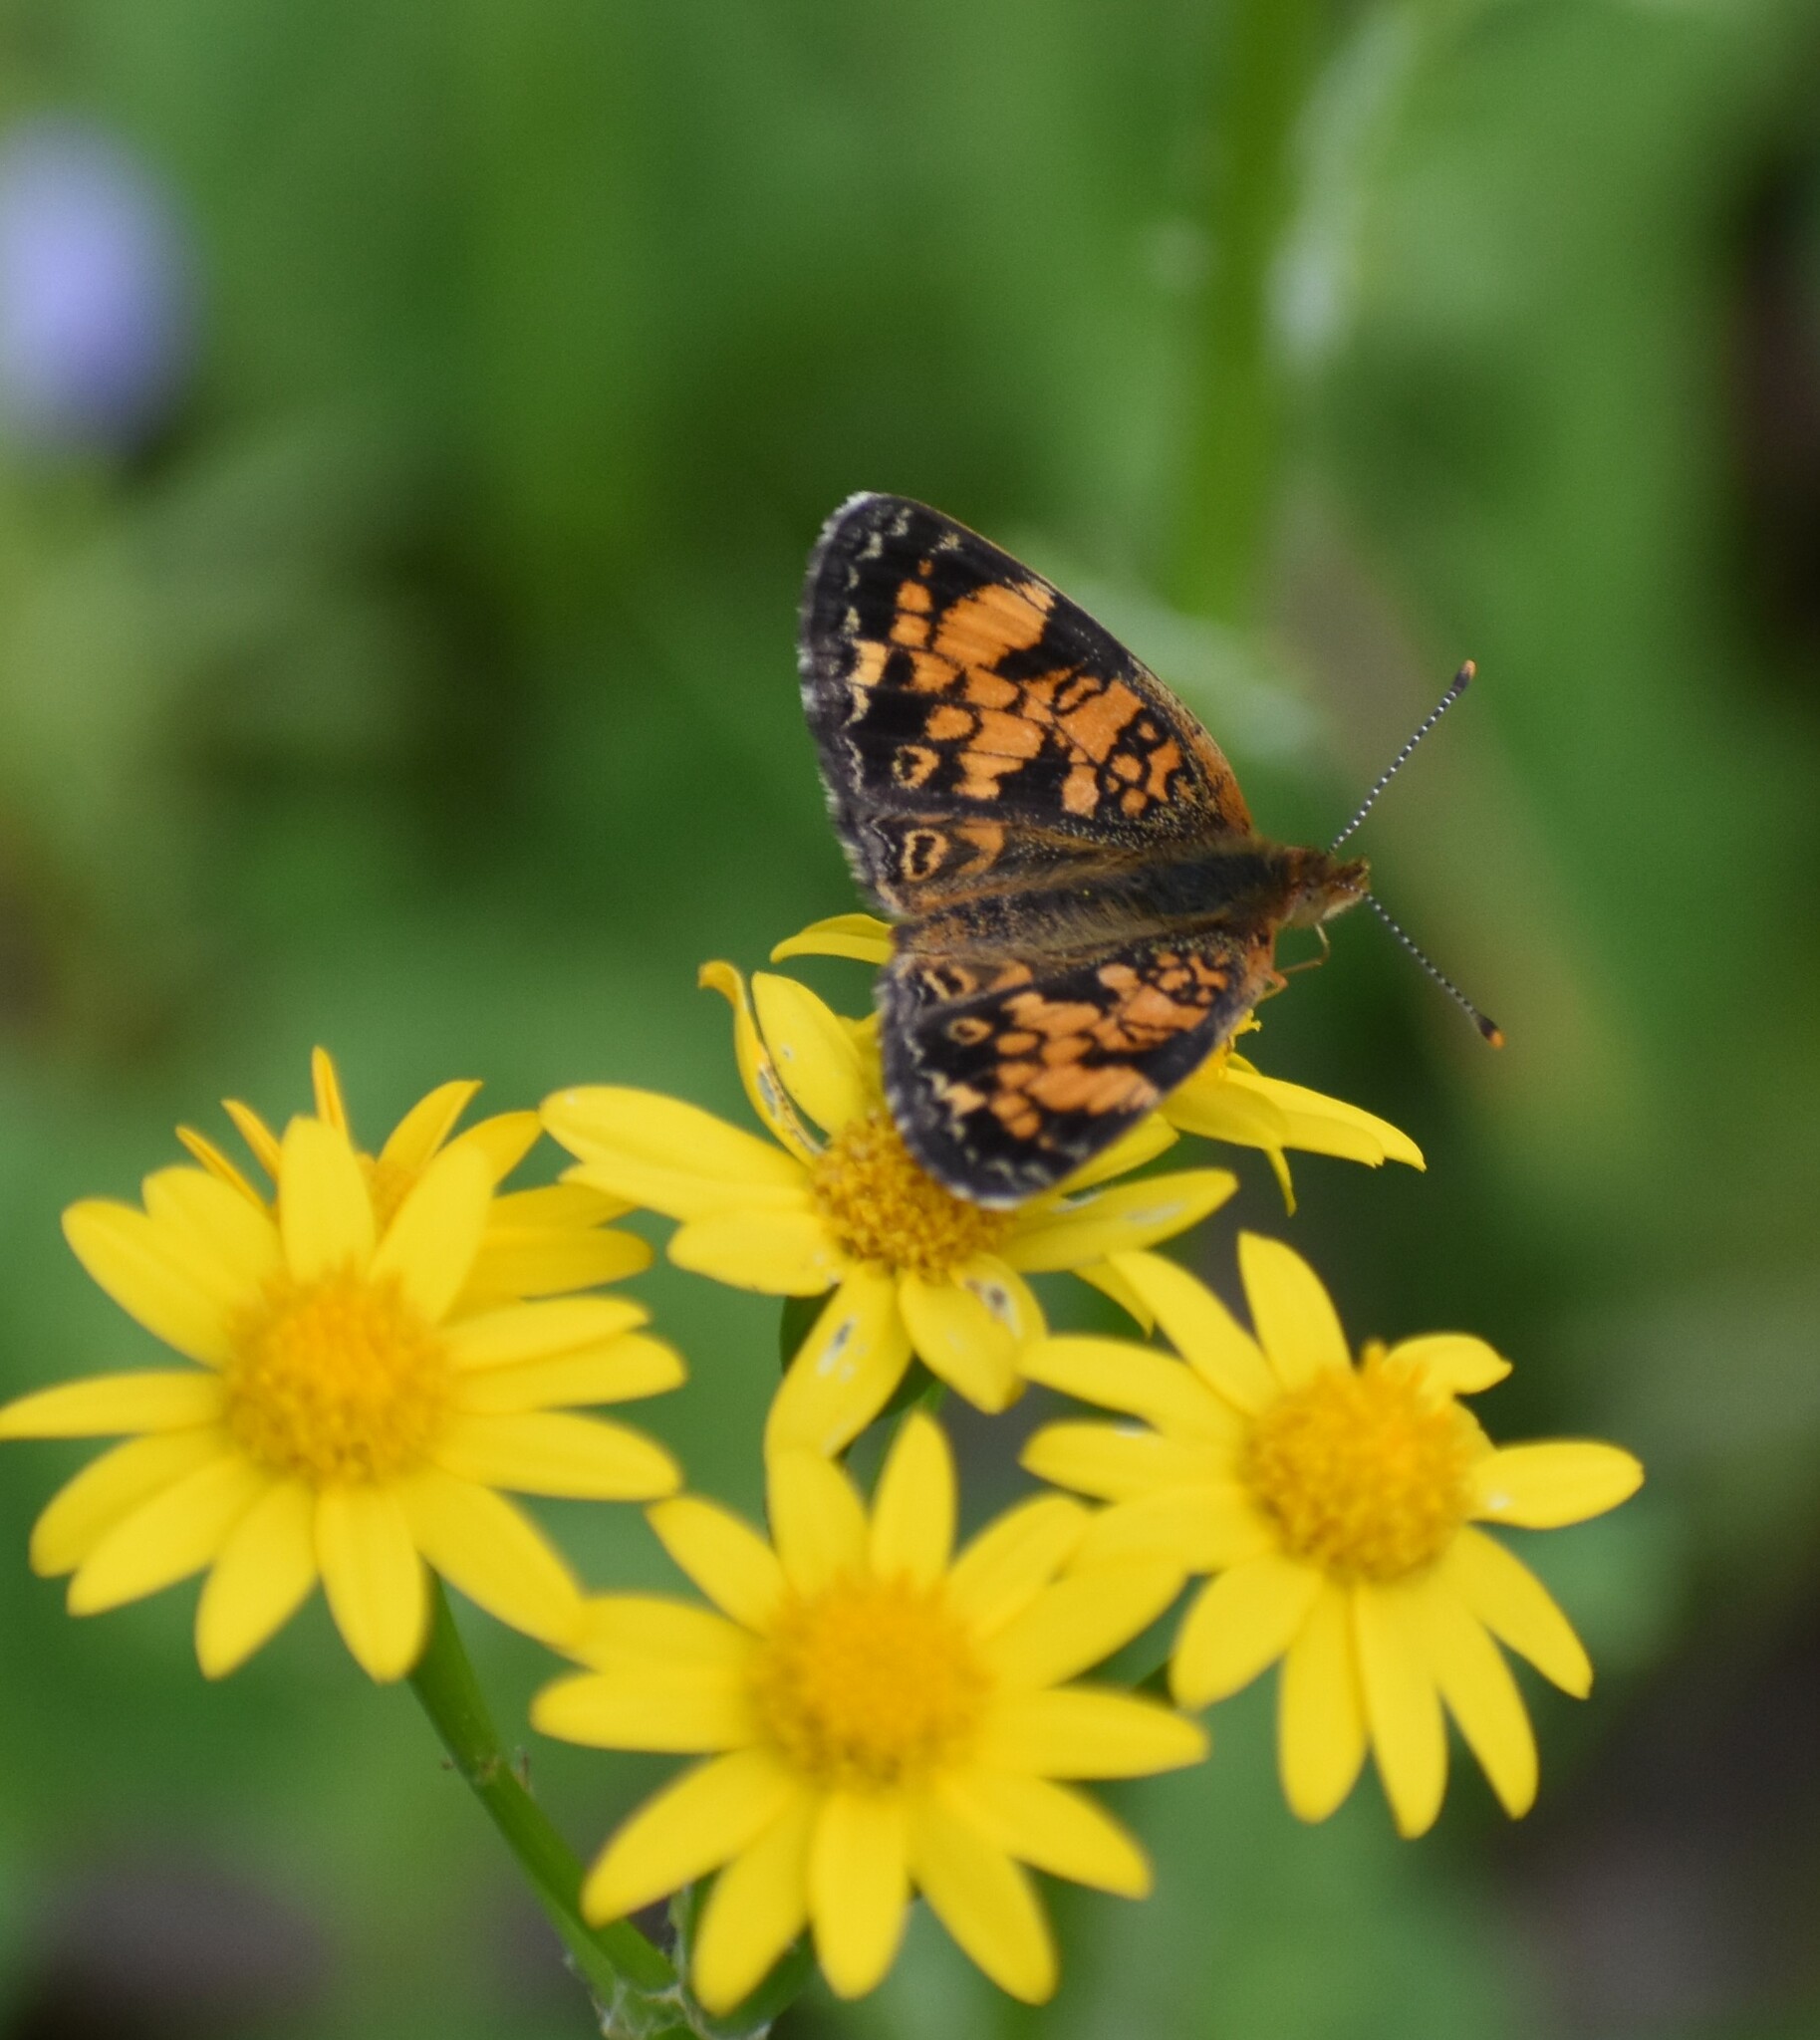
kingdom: Animalia
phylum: Arthropoda
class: Insecta
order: Lepidoptera
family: Nymphalidae
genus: Phyciodes
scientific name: Phyciodes tharos
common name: Pearl crescent
